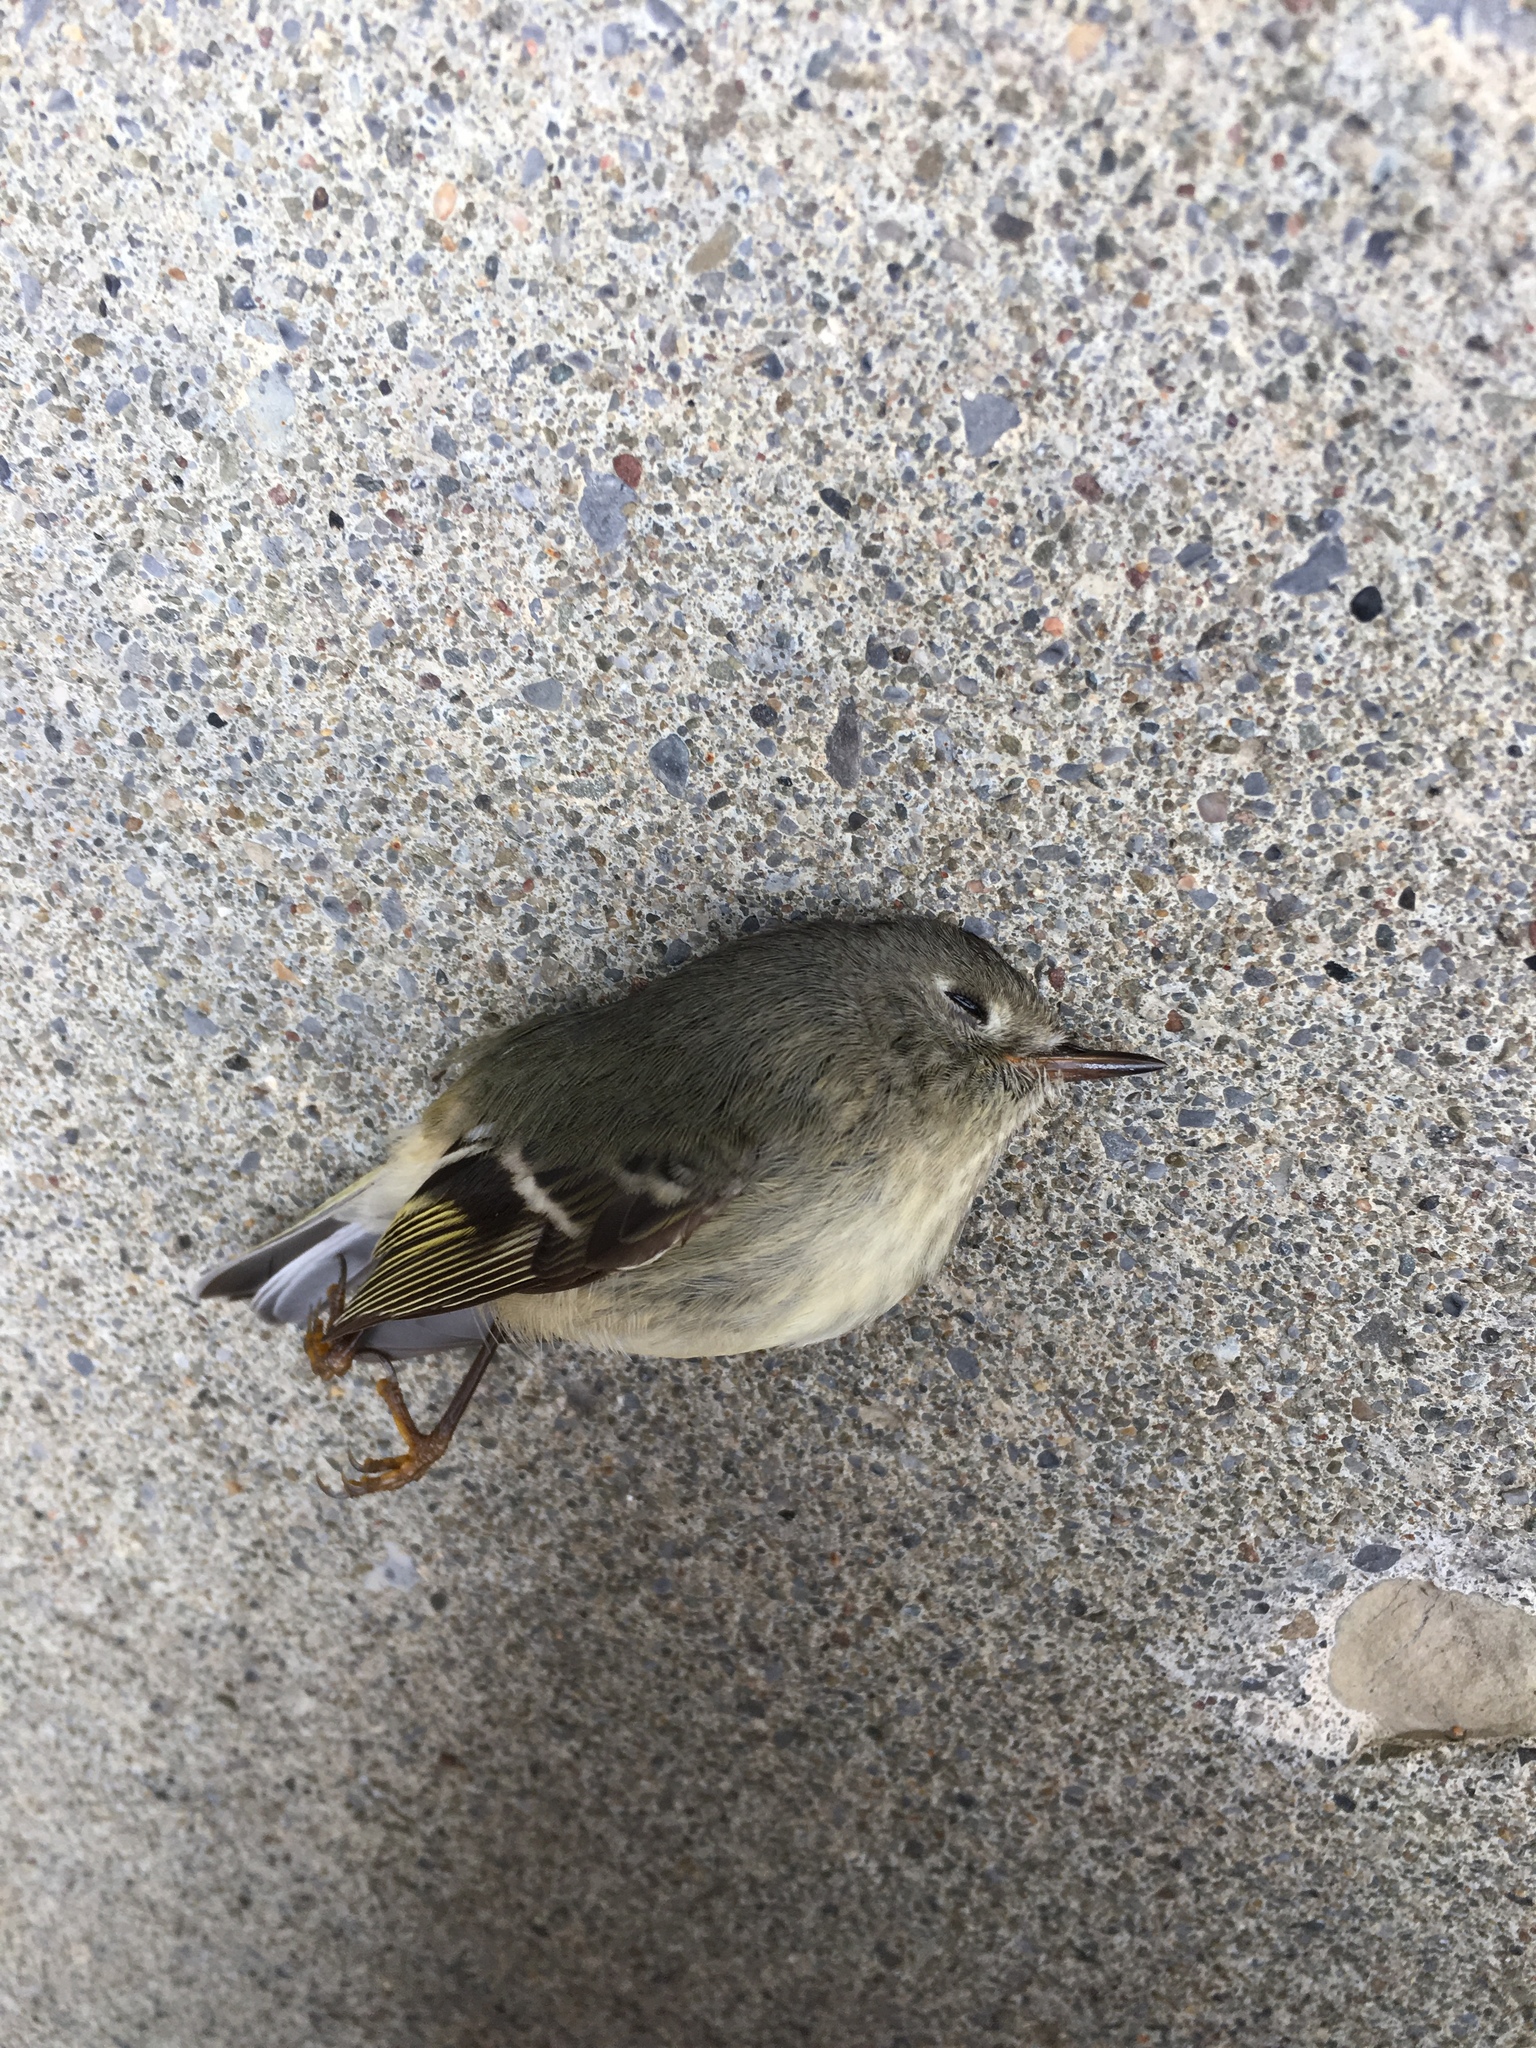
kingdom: Animalia
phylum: Chordata
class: Aves
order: Passeriformes
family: Regulidae
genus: Regulus
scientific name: Regulus calendula
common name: Ruby-crowned kinglet
